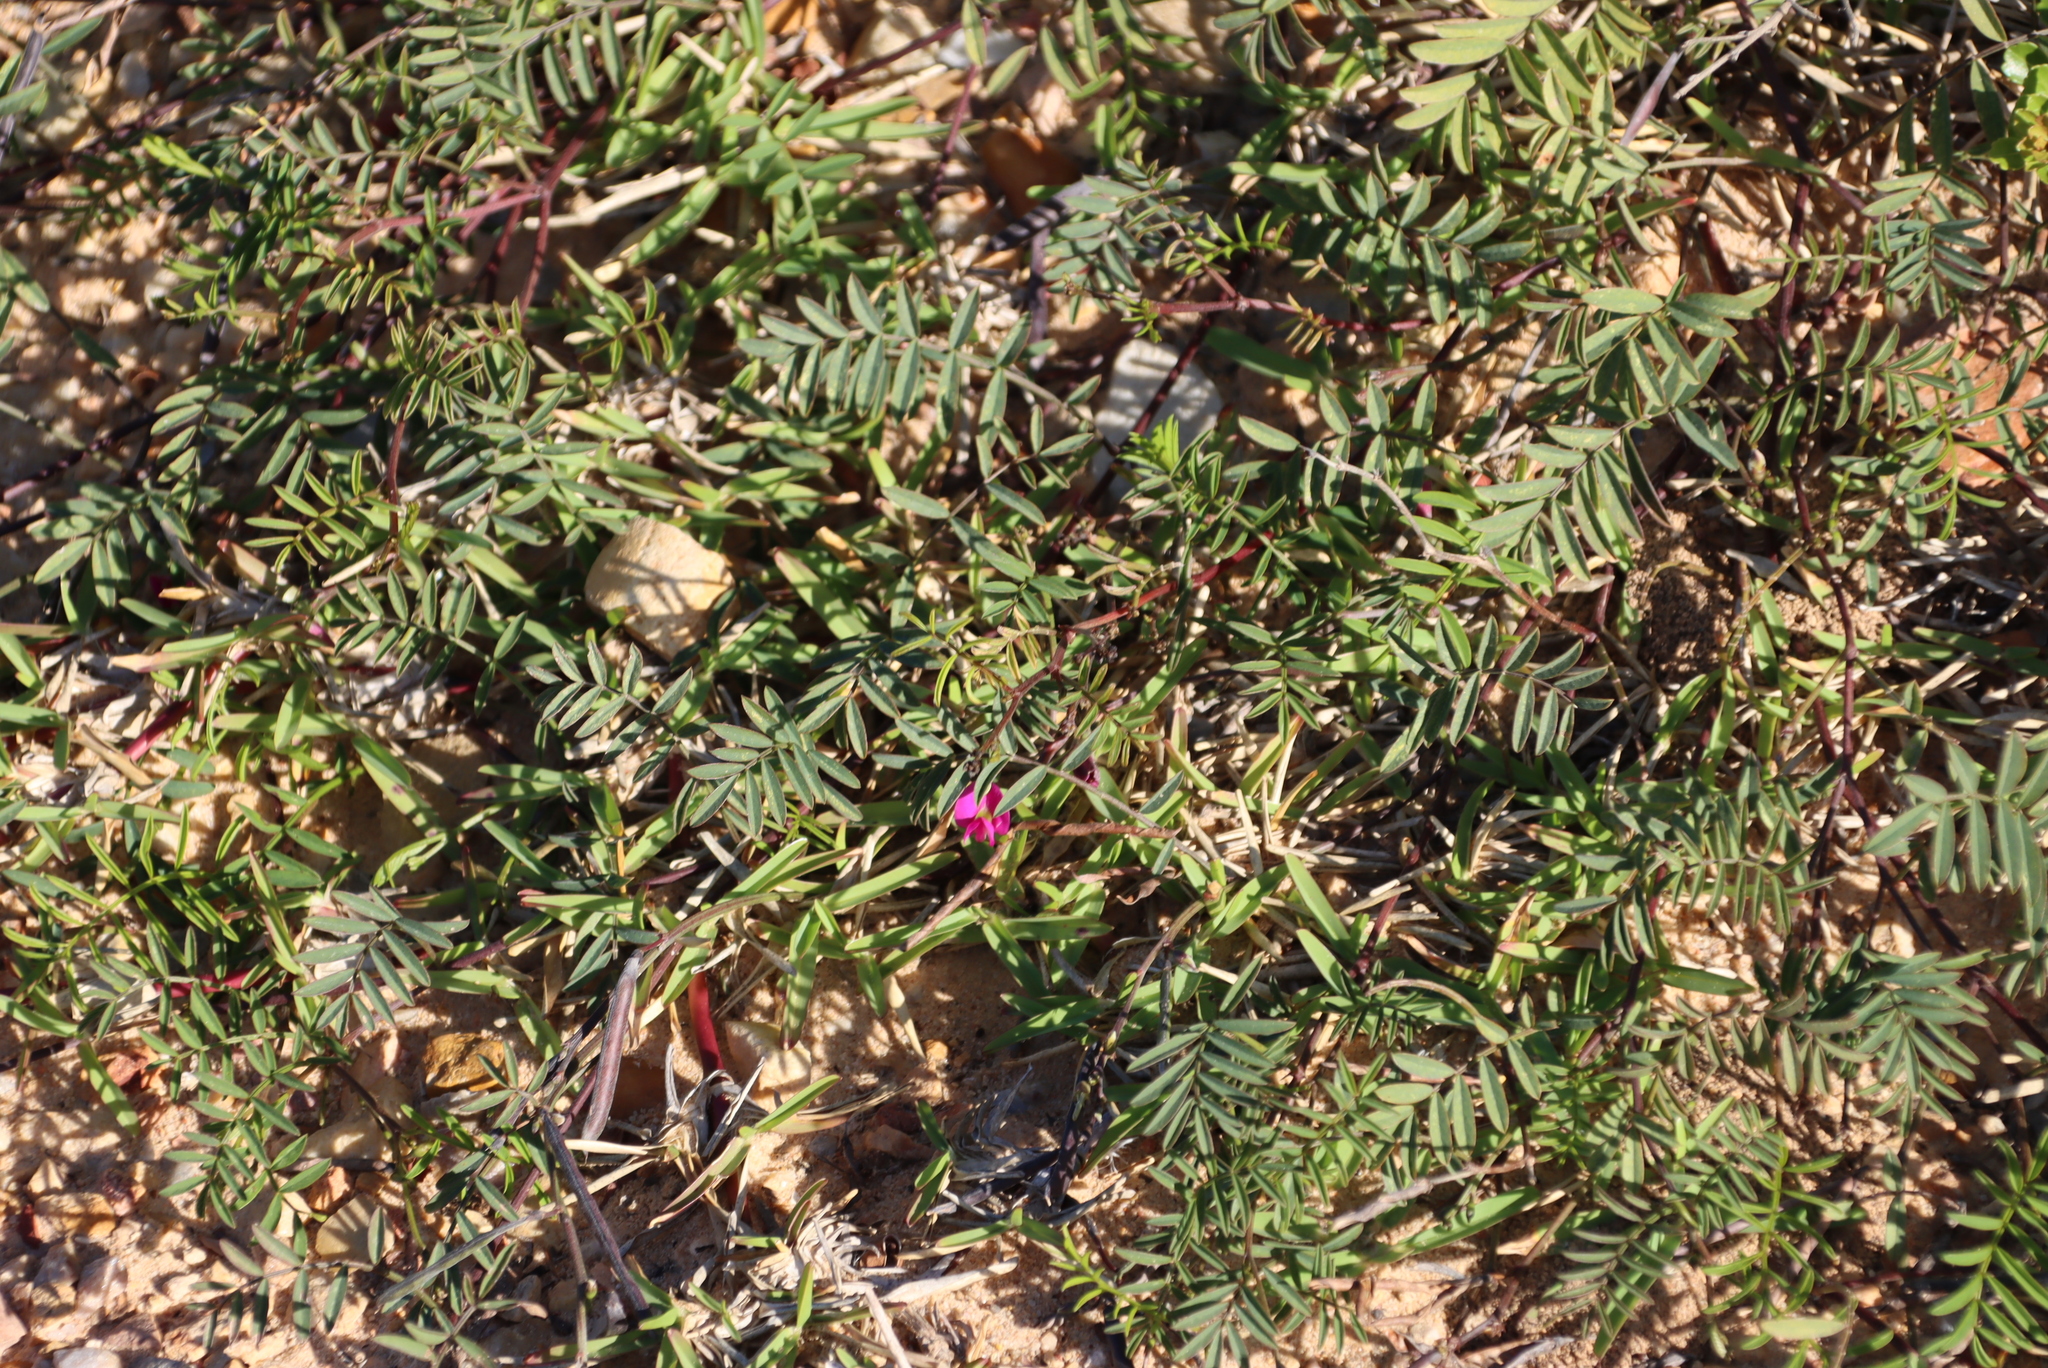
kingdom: Plantae
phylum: Tracheophyta
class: Magnoliopsida
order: Fabales
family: Fabaceae
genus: Tephrosia
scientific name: Tephrosia capensis
